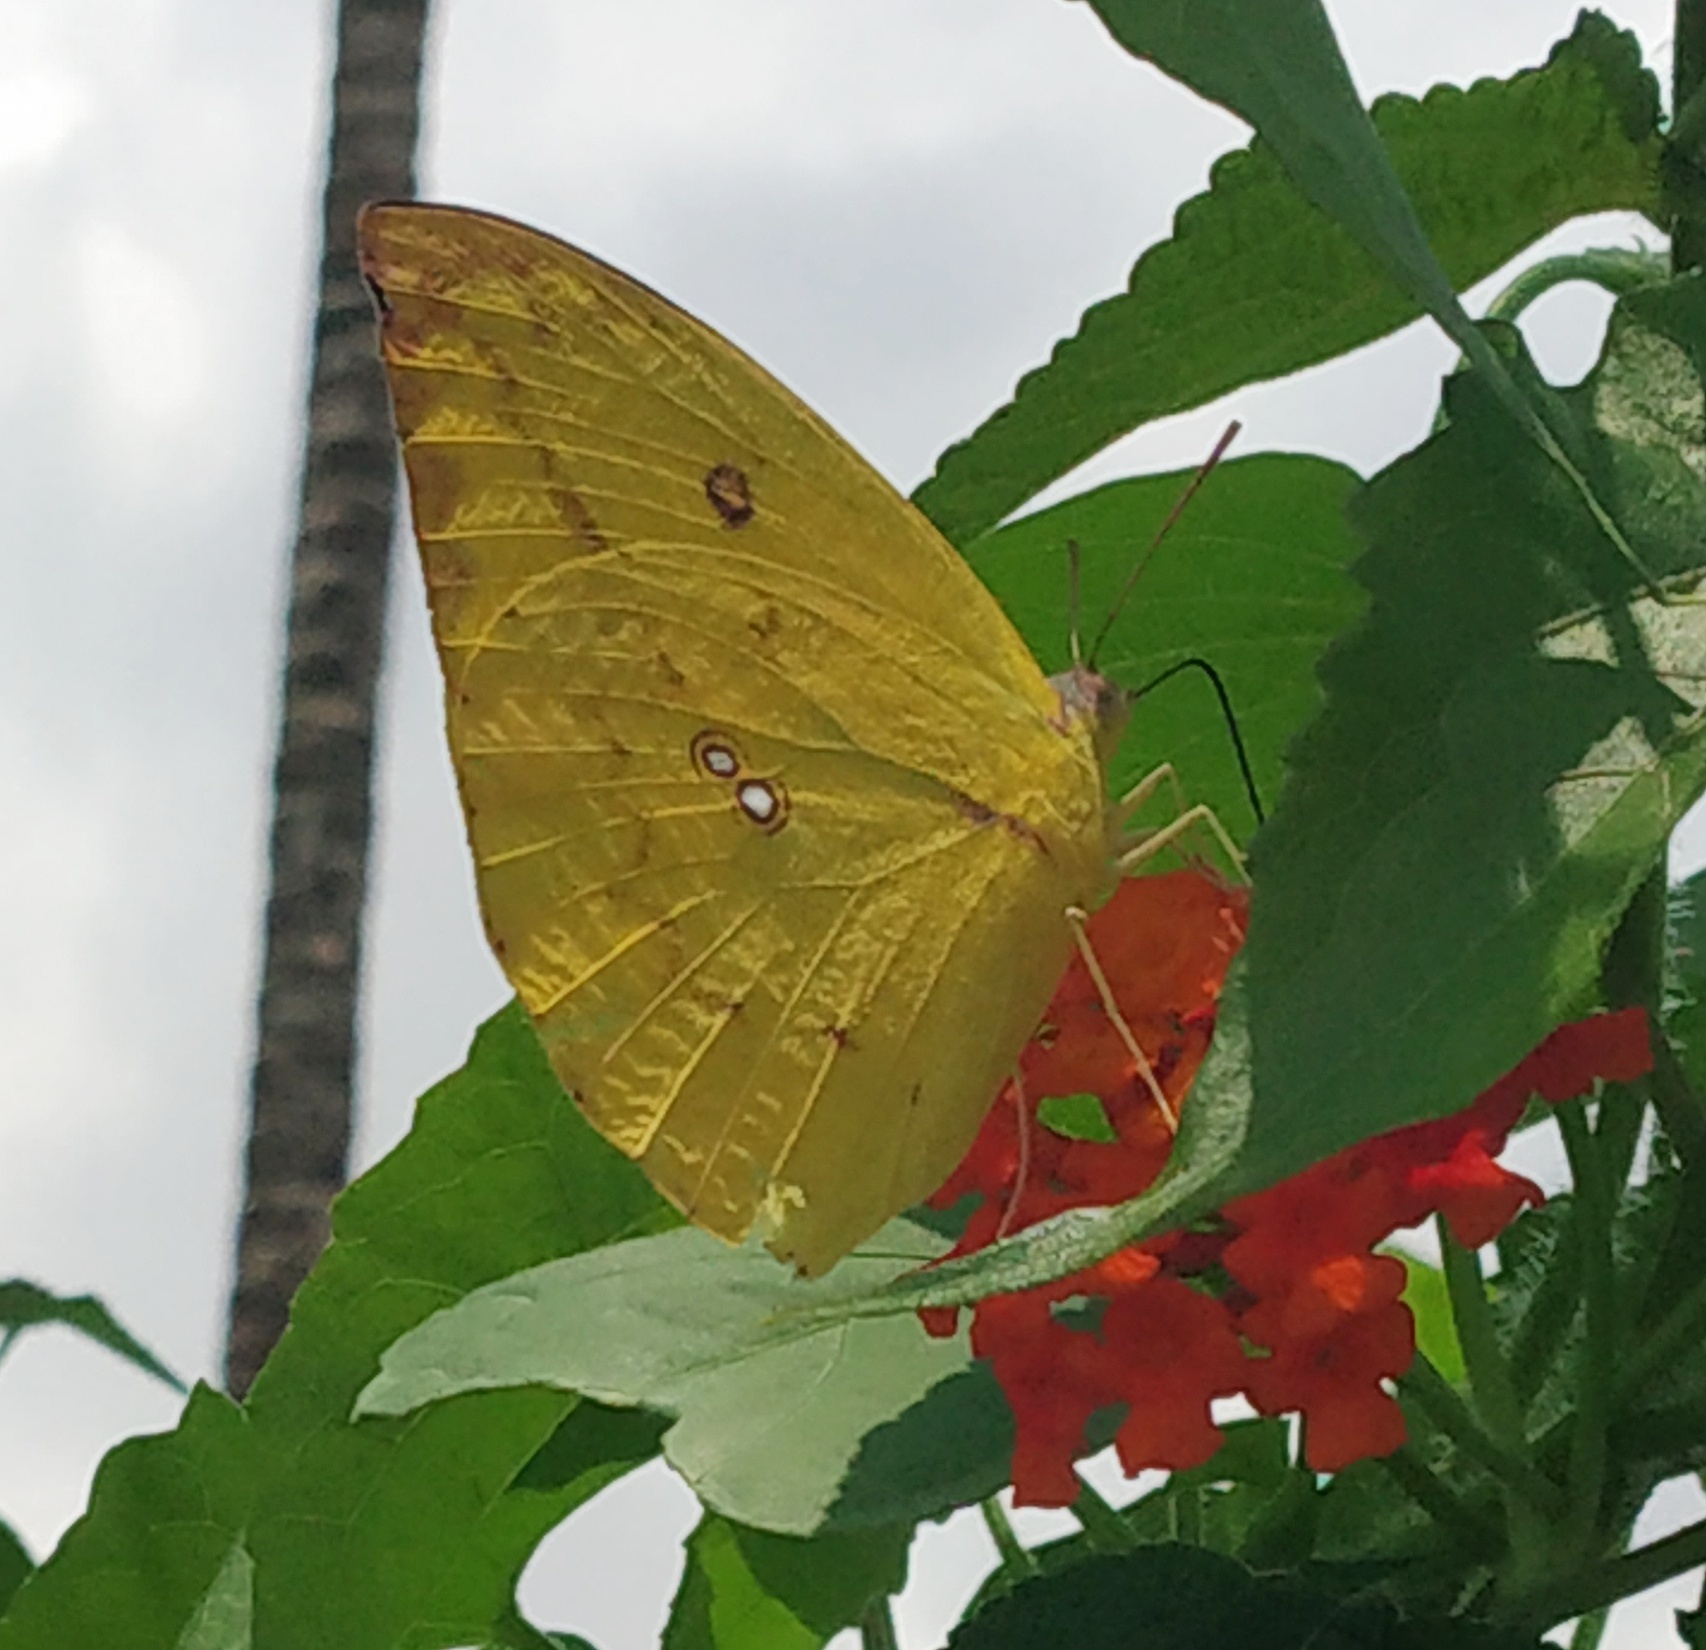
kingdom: Animalia
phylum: Arthropoda
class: Insecta
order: Lepidoptera
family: Pieridae
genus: Catopsilia
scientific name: Catopsilia pomona
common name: Common emigrant
